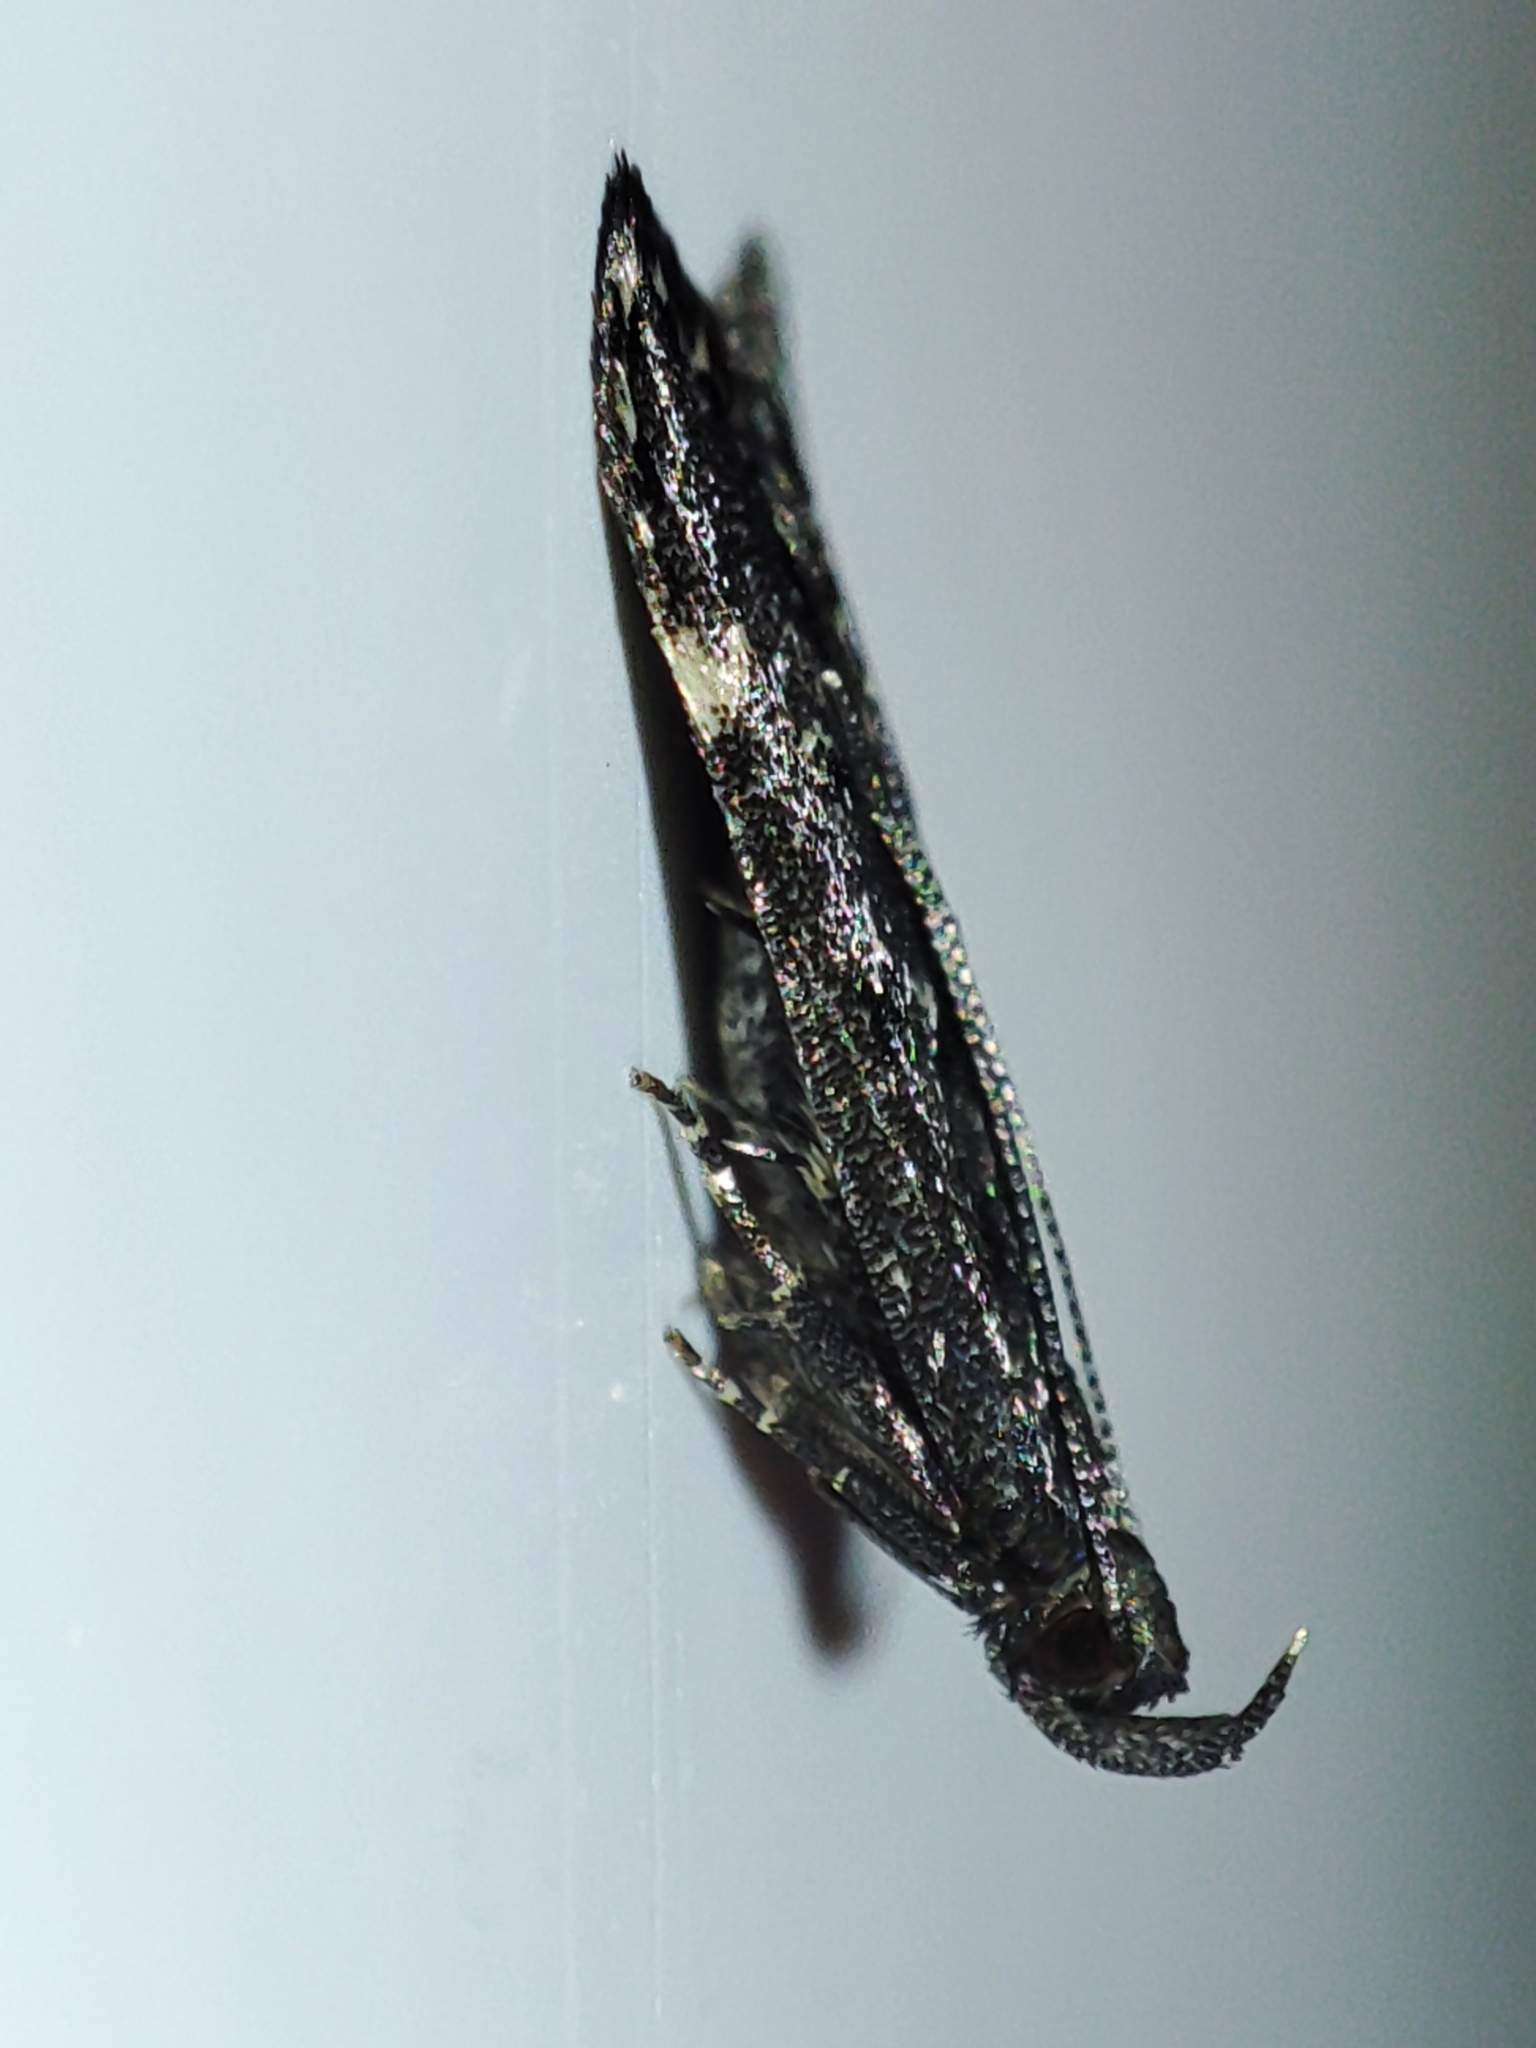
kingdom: Animalia
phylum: Arthropoda
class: Insecta
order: Lepidoptera
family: Gelechiidae
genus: Acanthophila
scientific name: Acanthophila alacella
